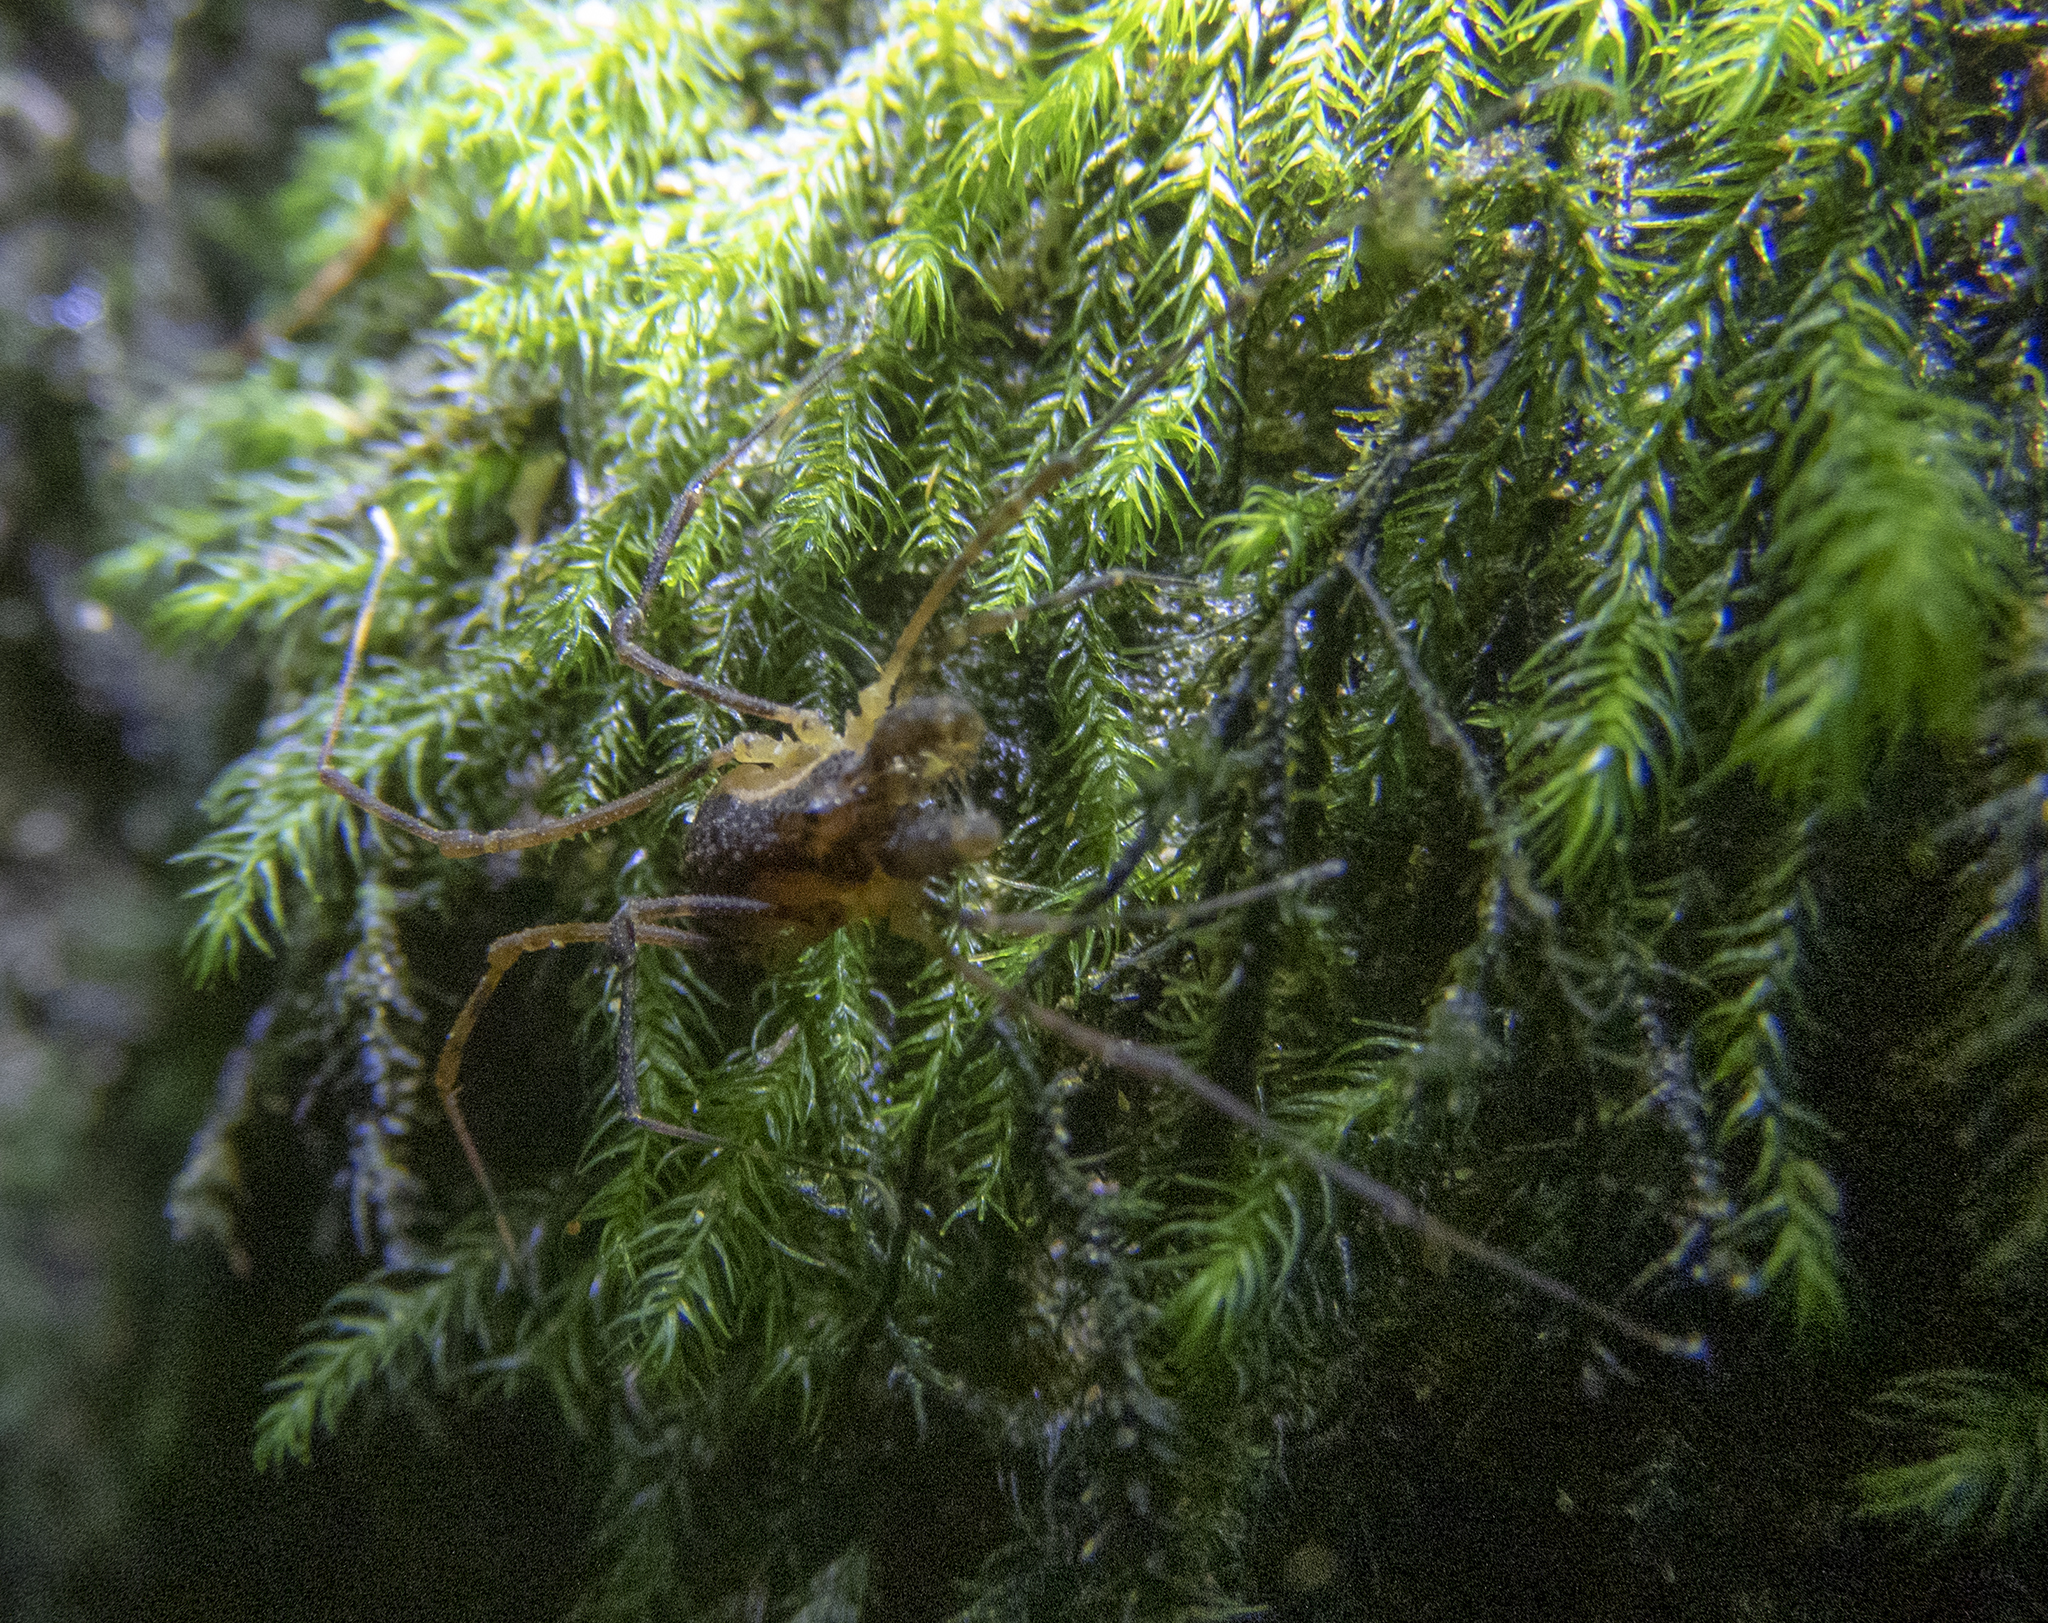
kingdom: Animalia
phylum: Arthropoda
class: Arachnida
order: Opiliones
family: Triaenonychidae
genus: Algidia
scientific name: Algidia interrupta
